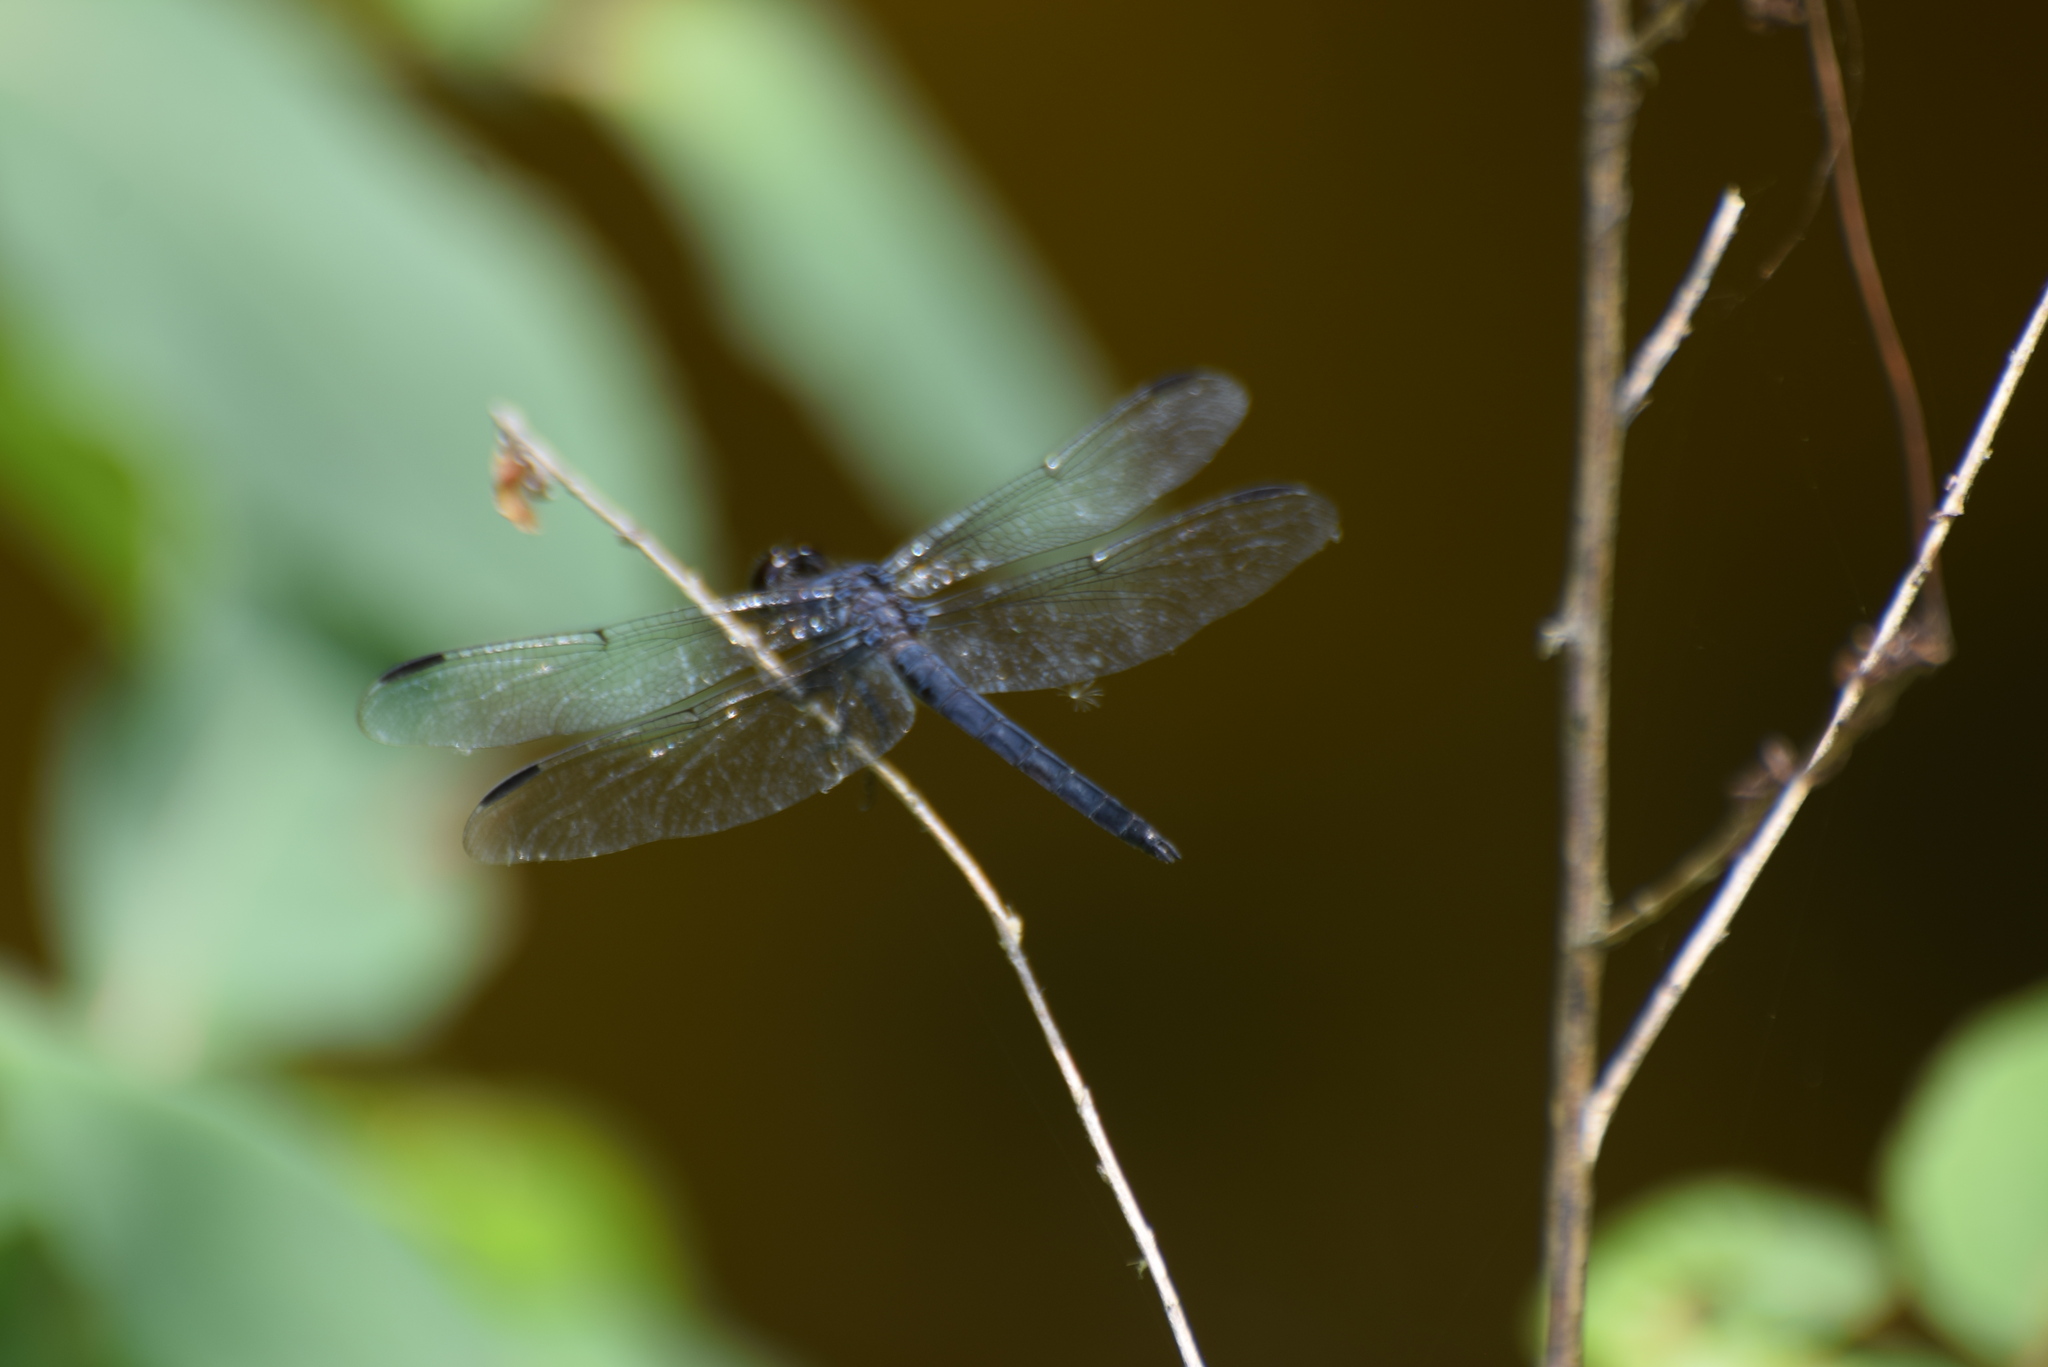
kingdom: Animalia
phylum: Arthropoda
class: Insecta
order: Odonata
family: Libellulidae
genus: Libellula
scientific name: Libellula incesta
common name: Slaty skimmer
